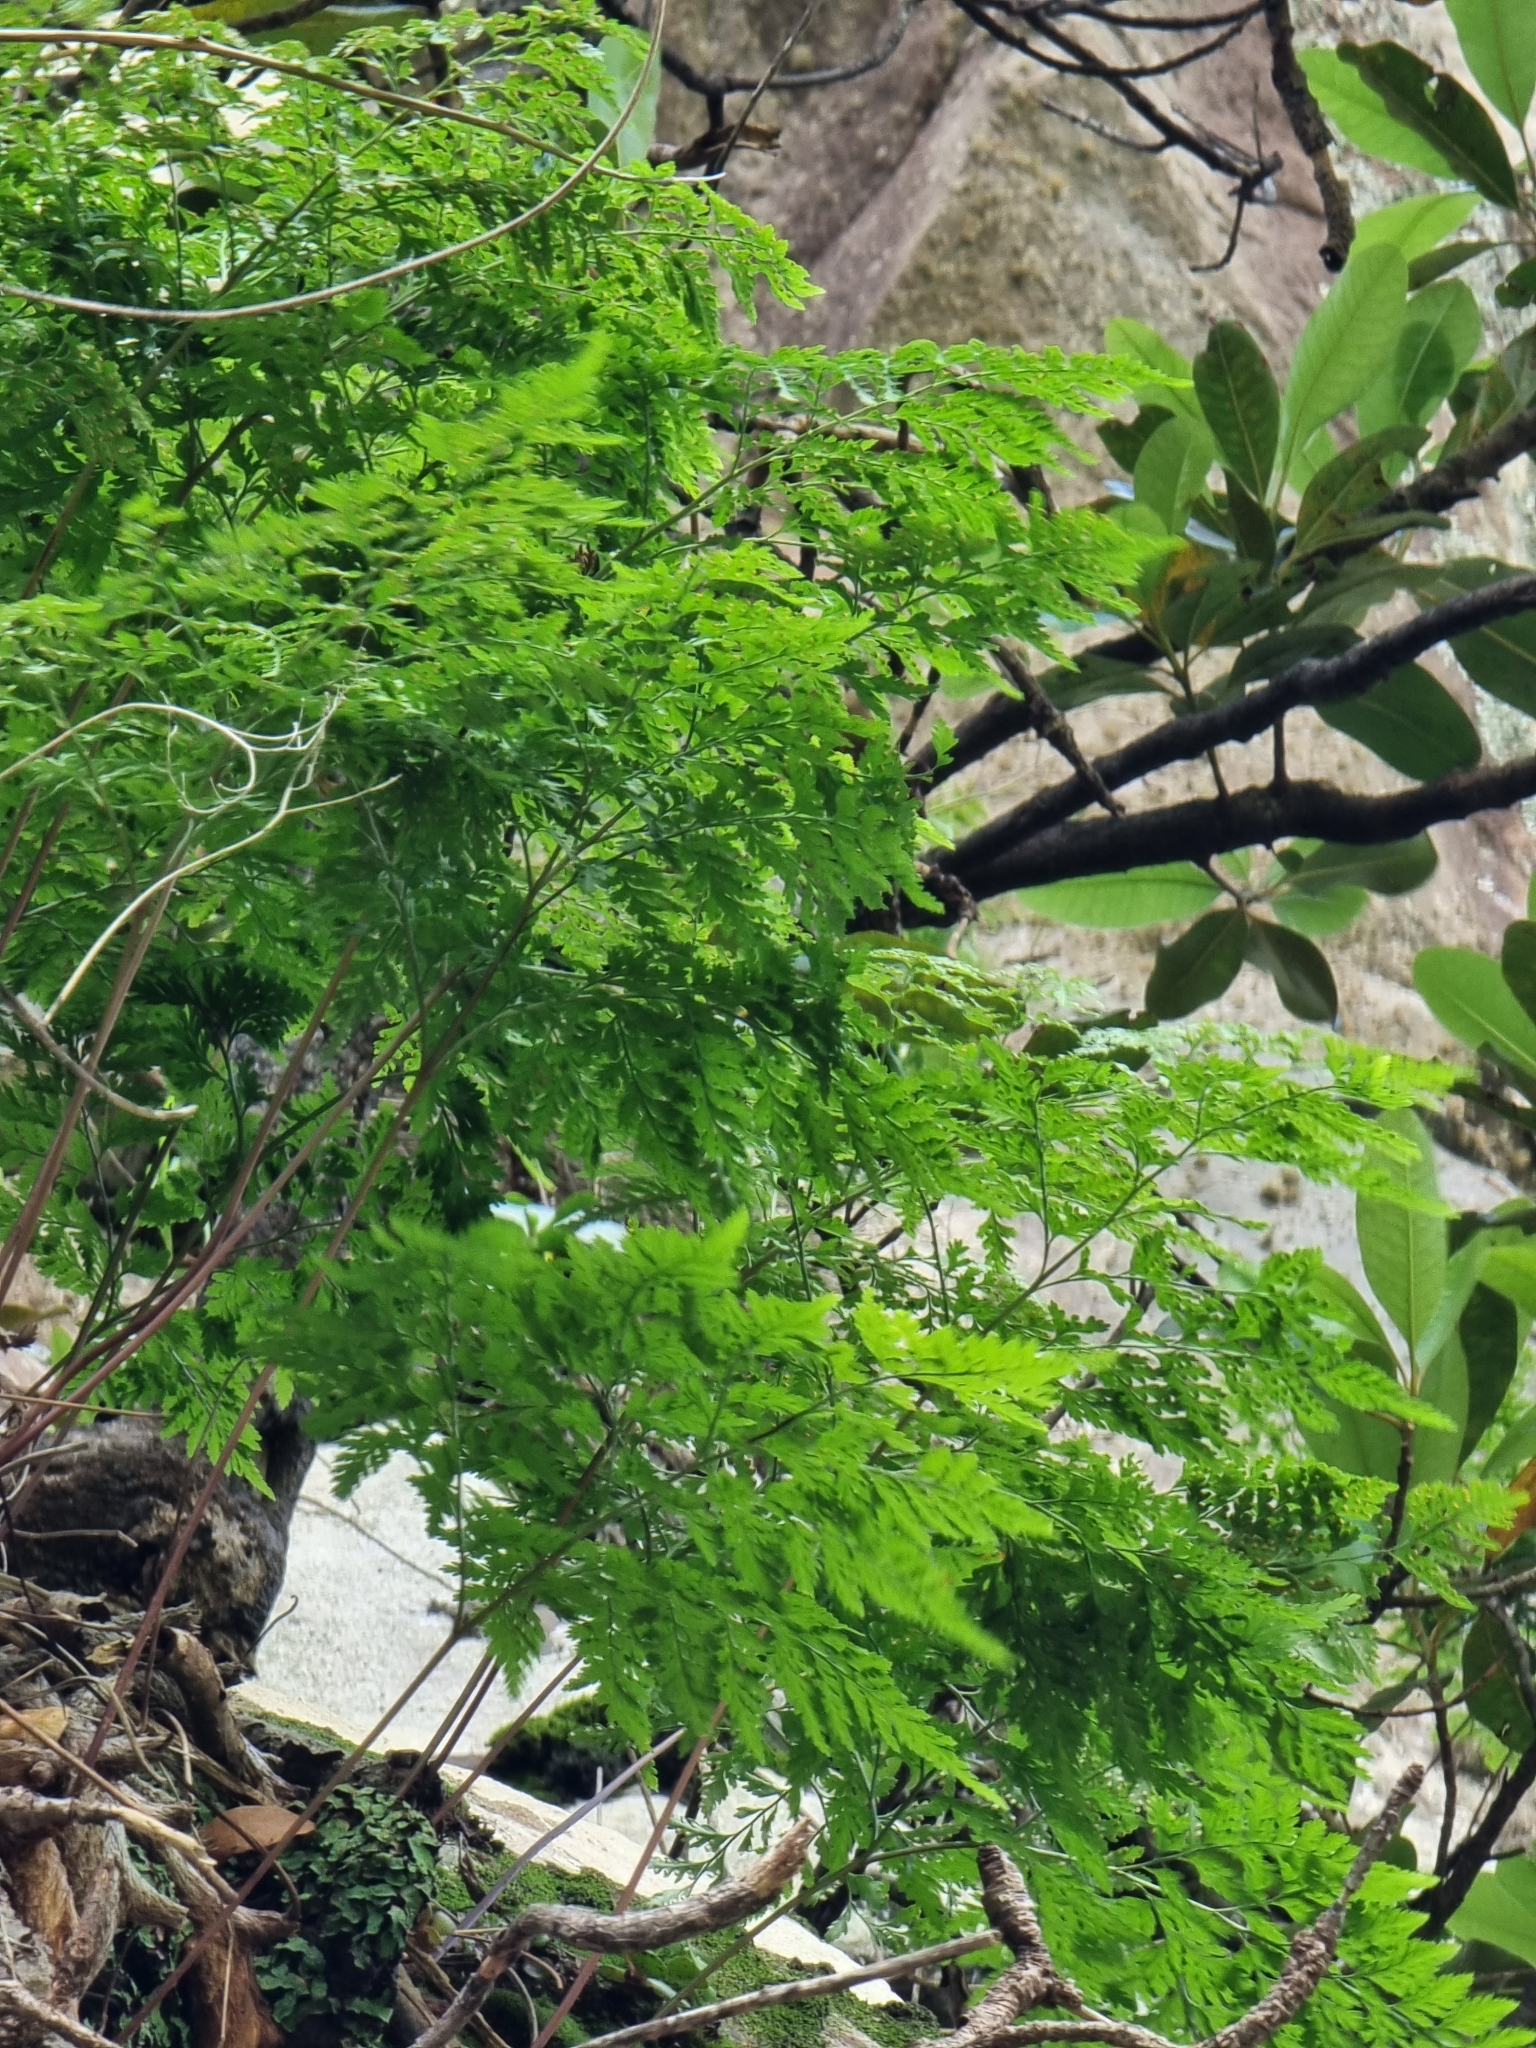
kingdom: Plantae
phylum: Tracheophyta
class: Polypodiopsida
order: Polypodiales
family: Davalliaceae
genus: Davallia
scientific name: Davallia canariensis
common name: Hare's-foot fern
